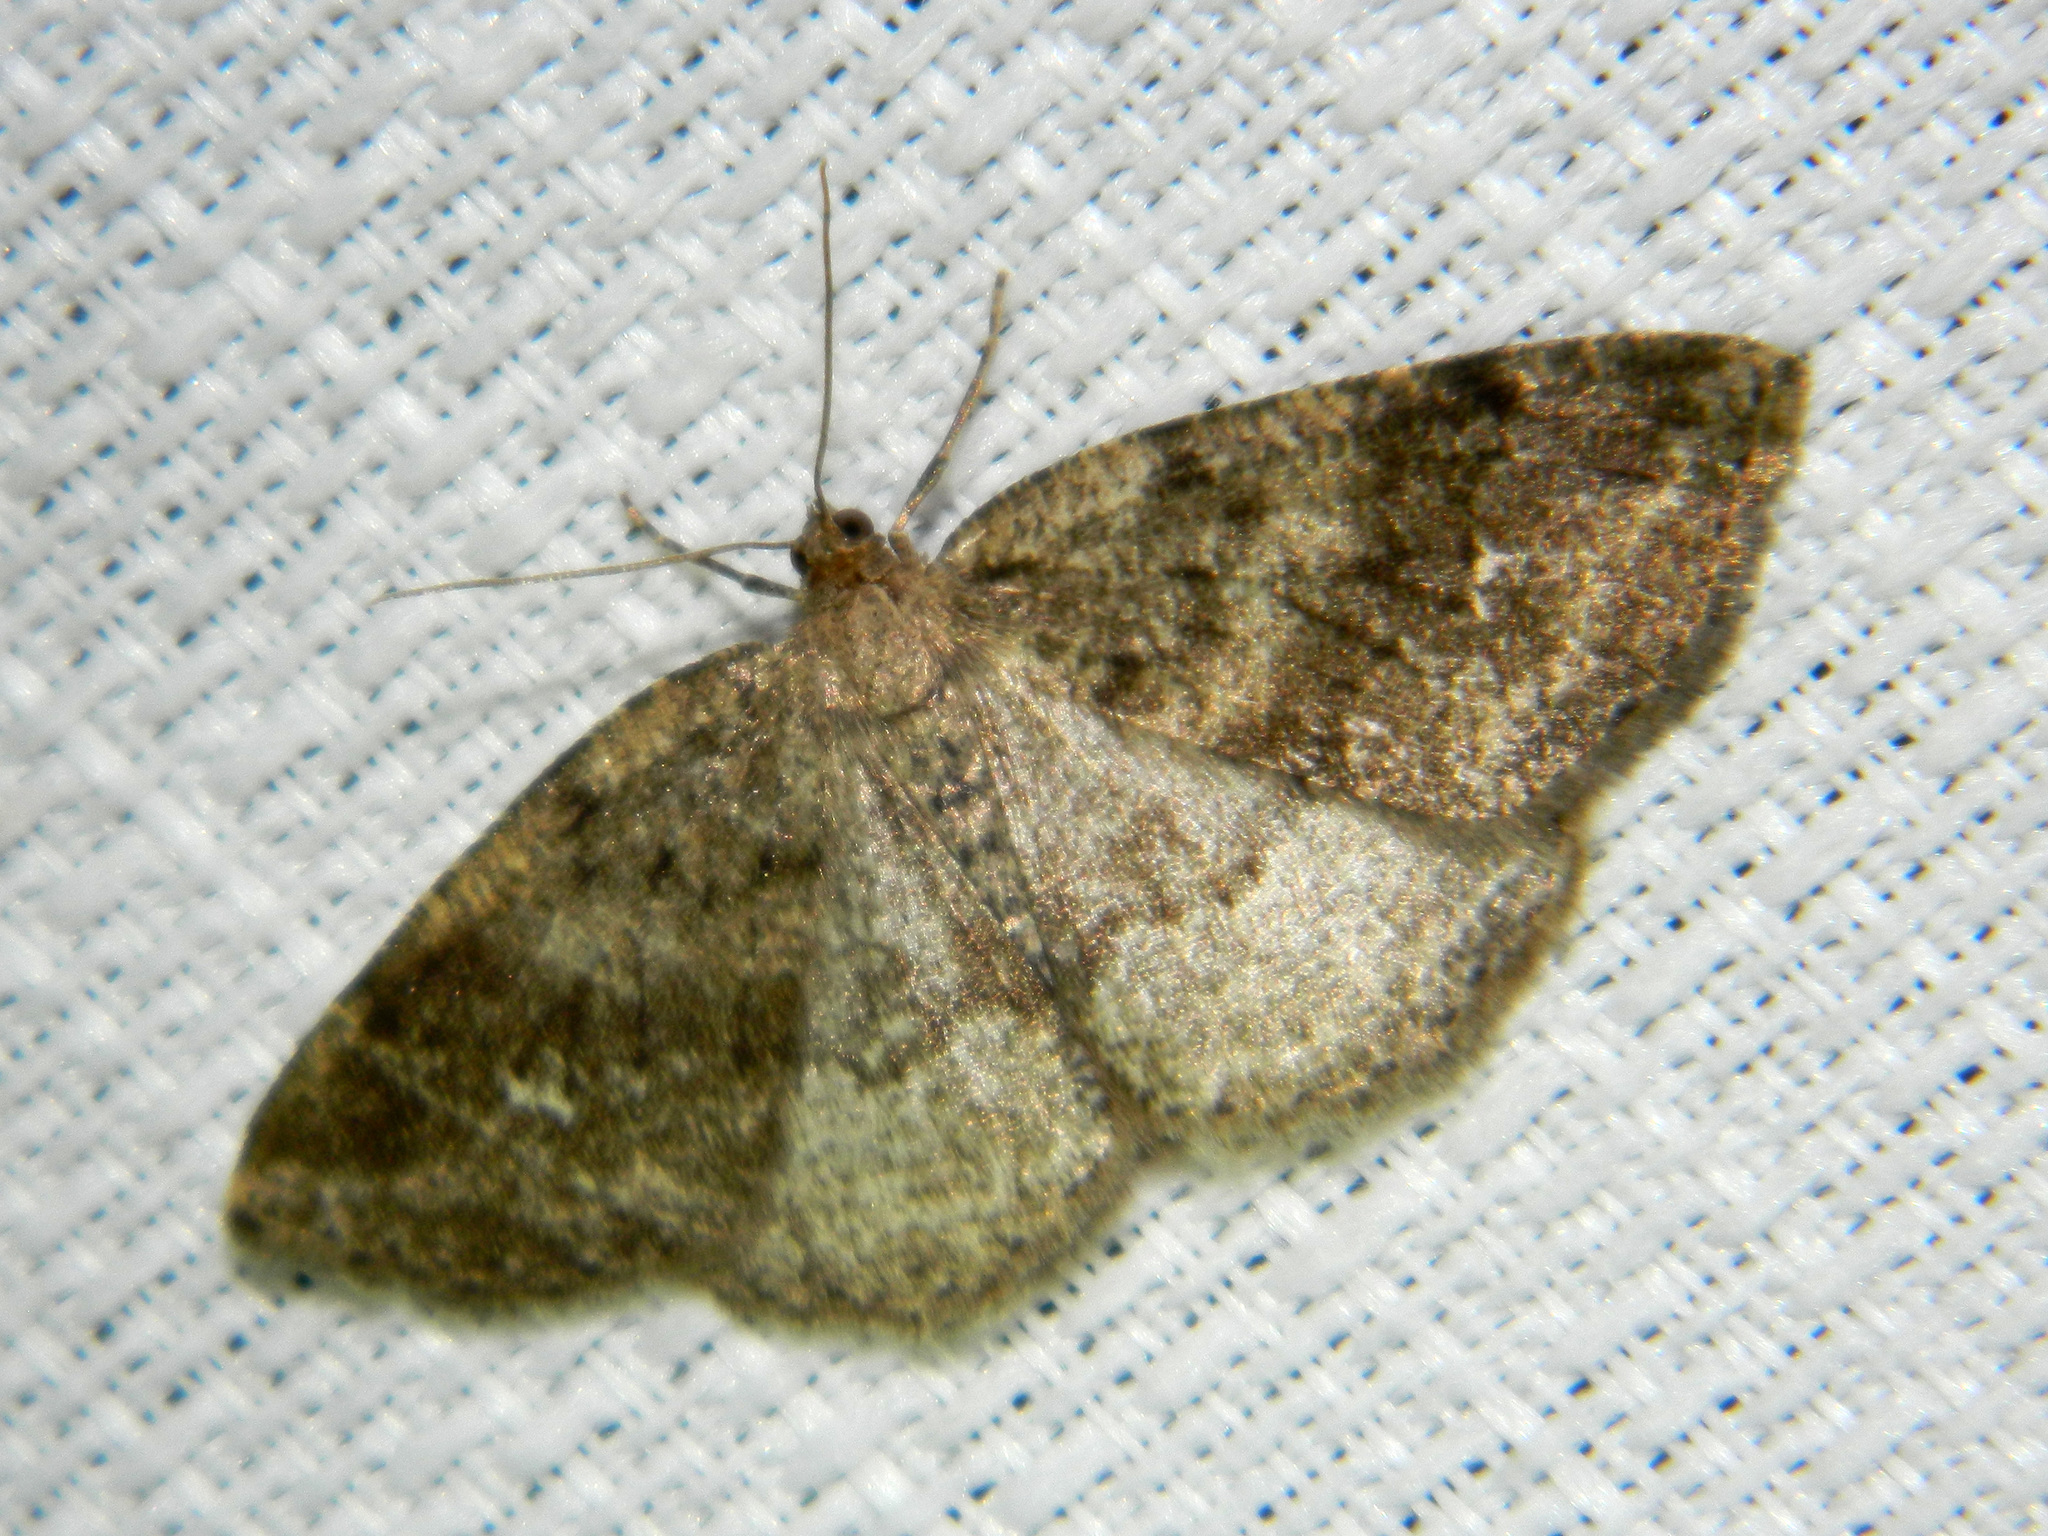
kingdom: Animalia
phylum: Arthropoda
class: Insecta
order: Lepidoptera
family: Geometridae
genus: Homochlodes
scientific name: Homochlodes fritillaria
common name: Pale homochlodes
